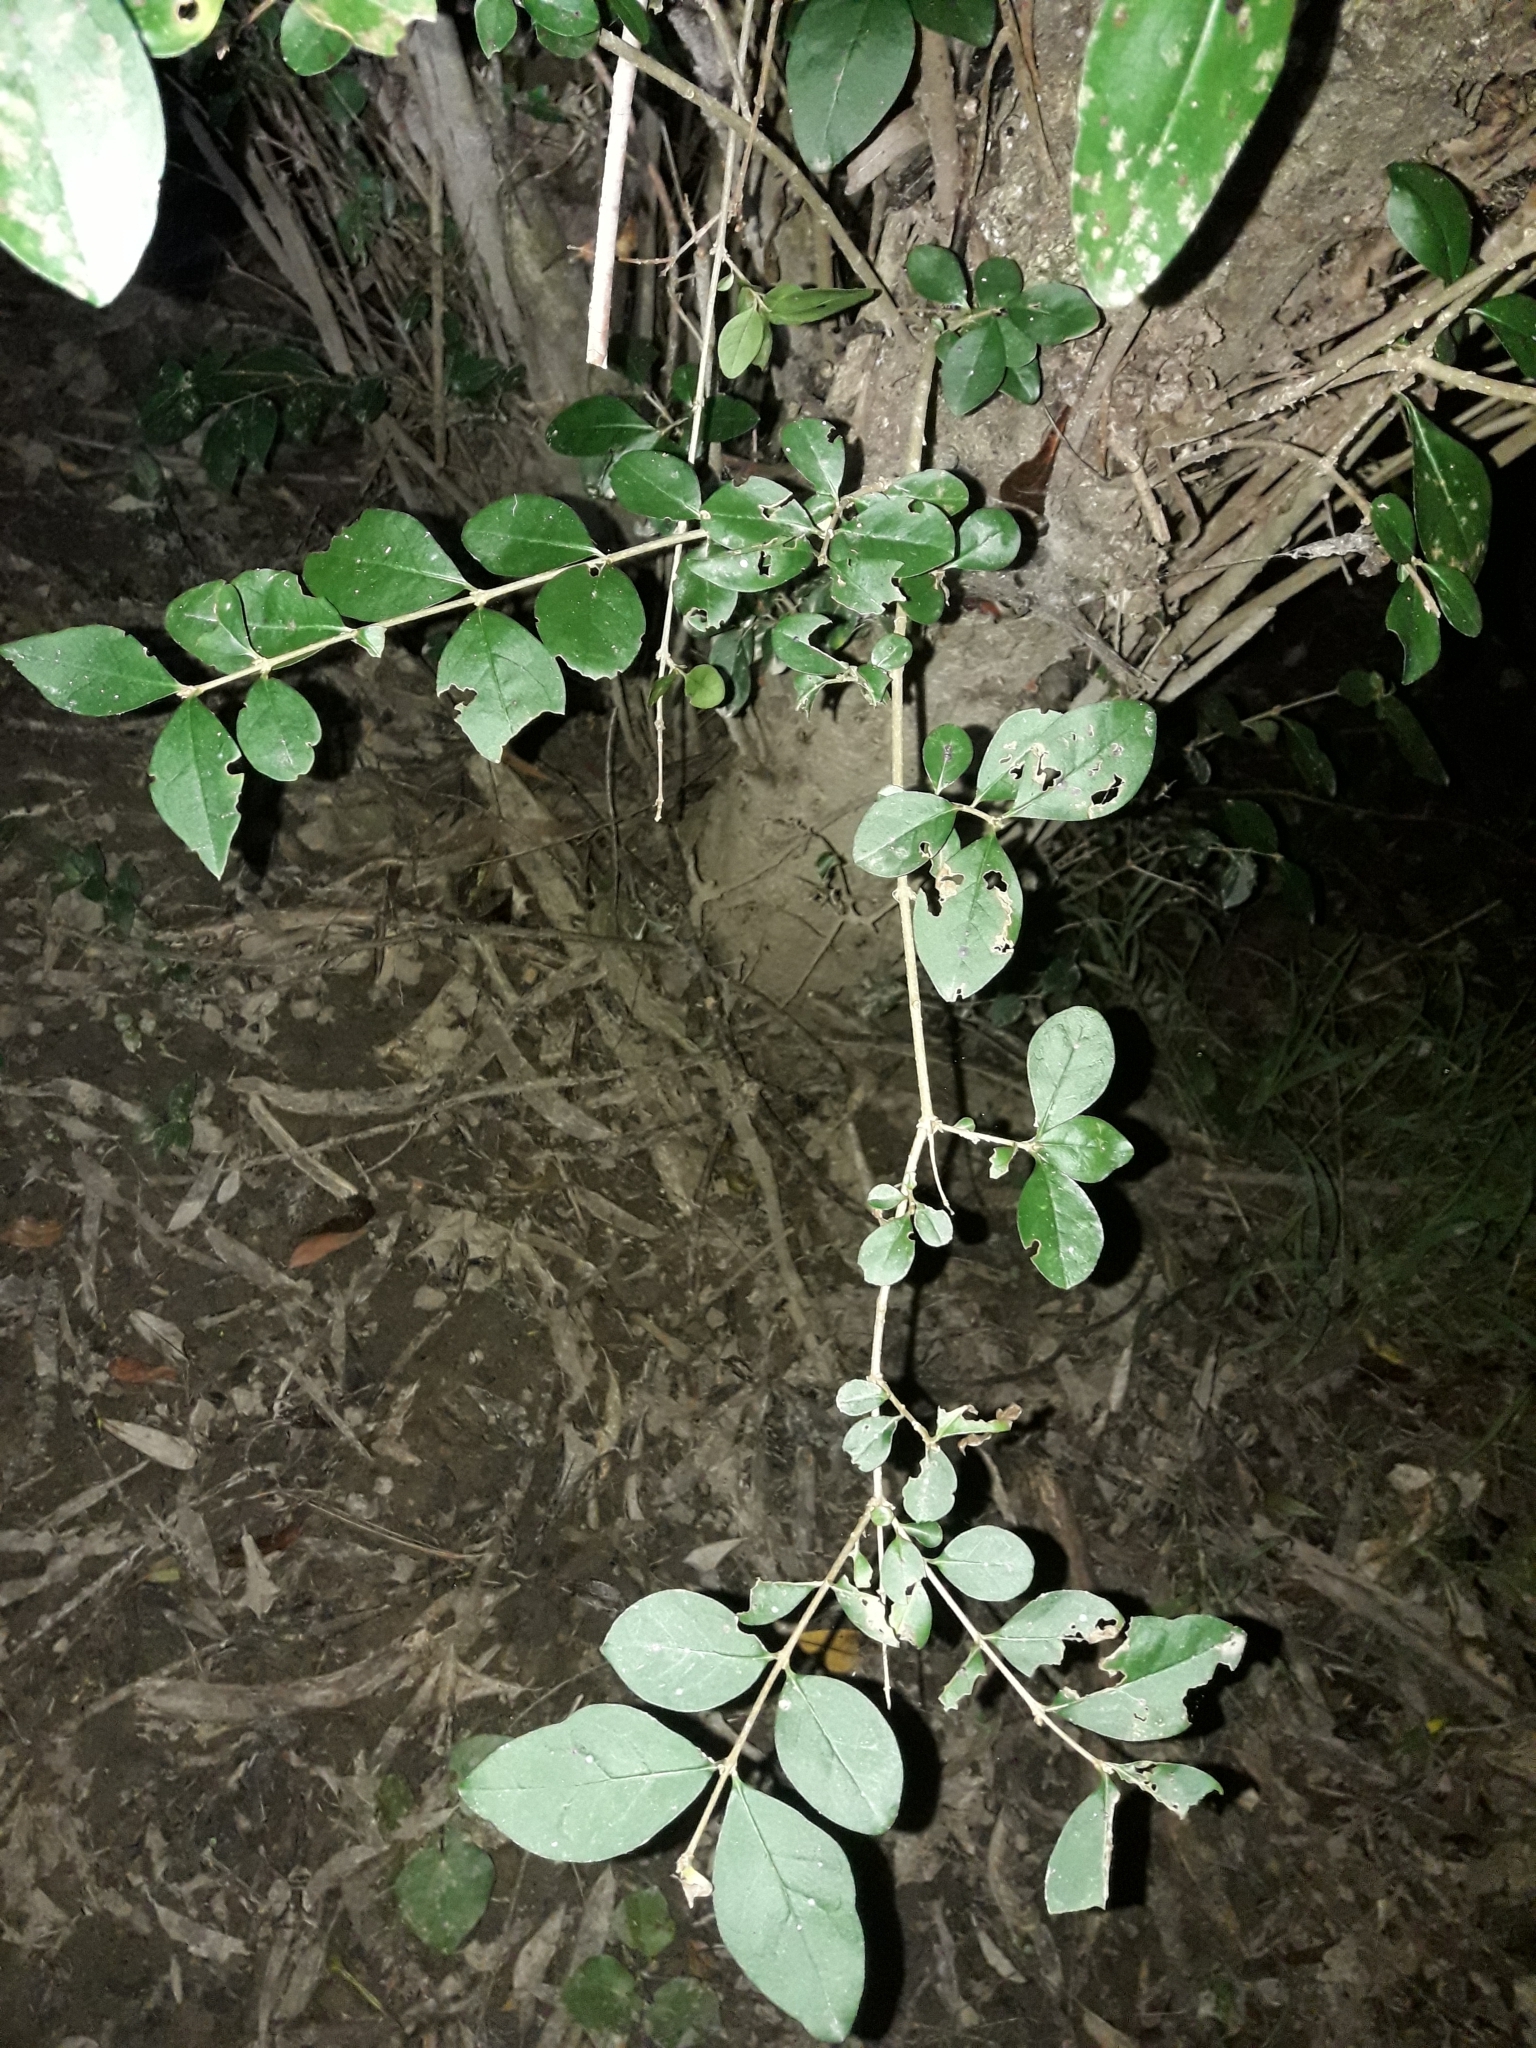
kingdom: Plantae
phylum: Tracheophyta
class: Magnoliopsida
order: Lamiales
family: Oleaceae
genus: Ligustrum
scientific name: Ligustrum ovalifolium
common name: California privet
